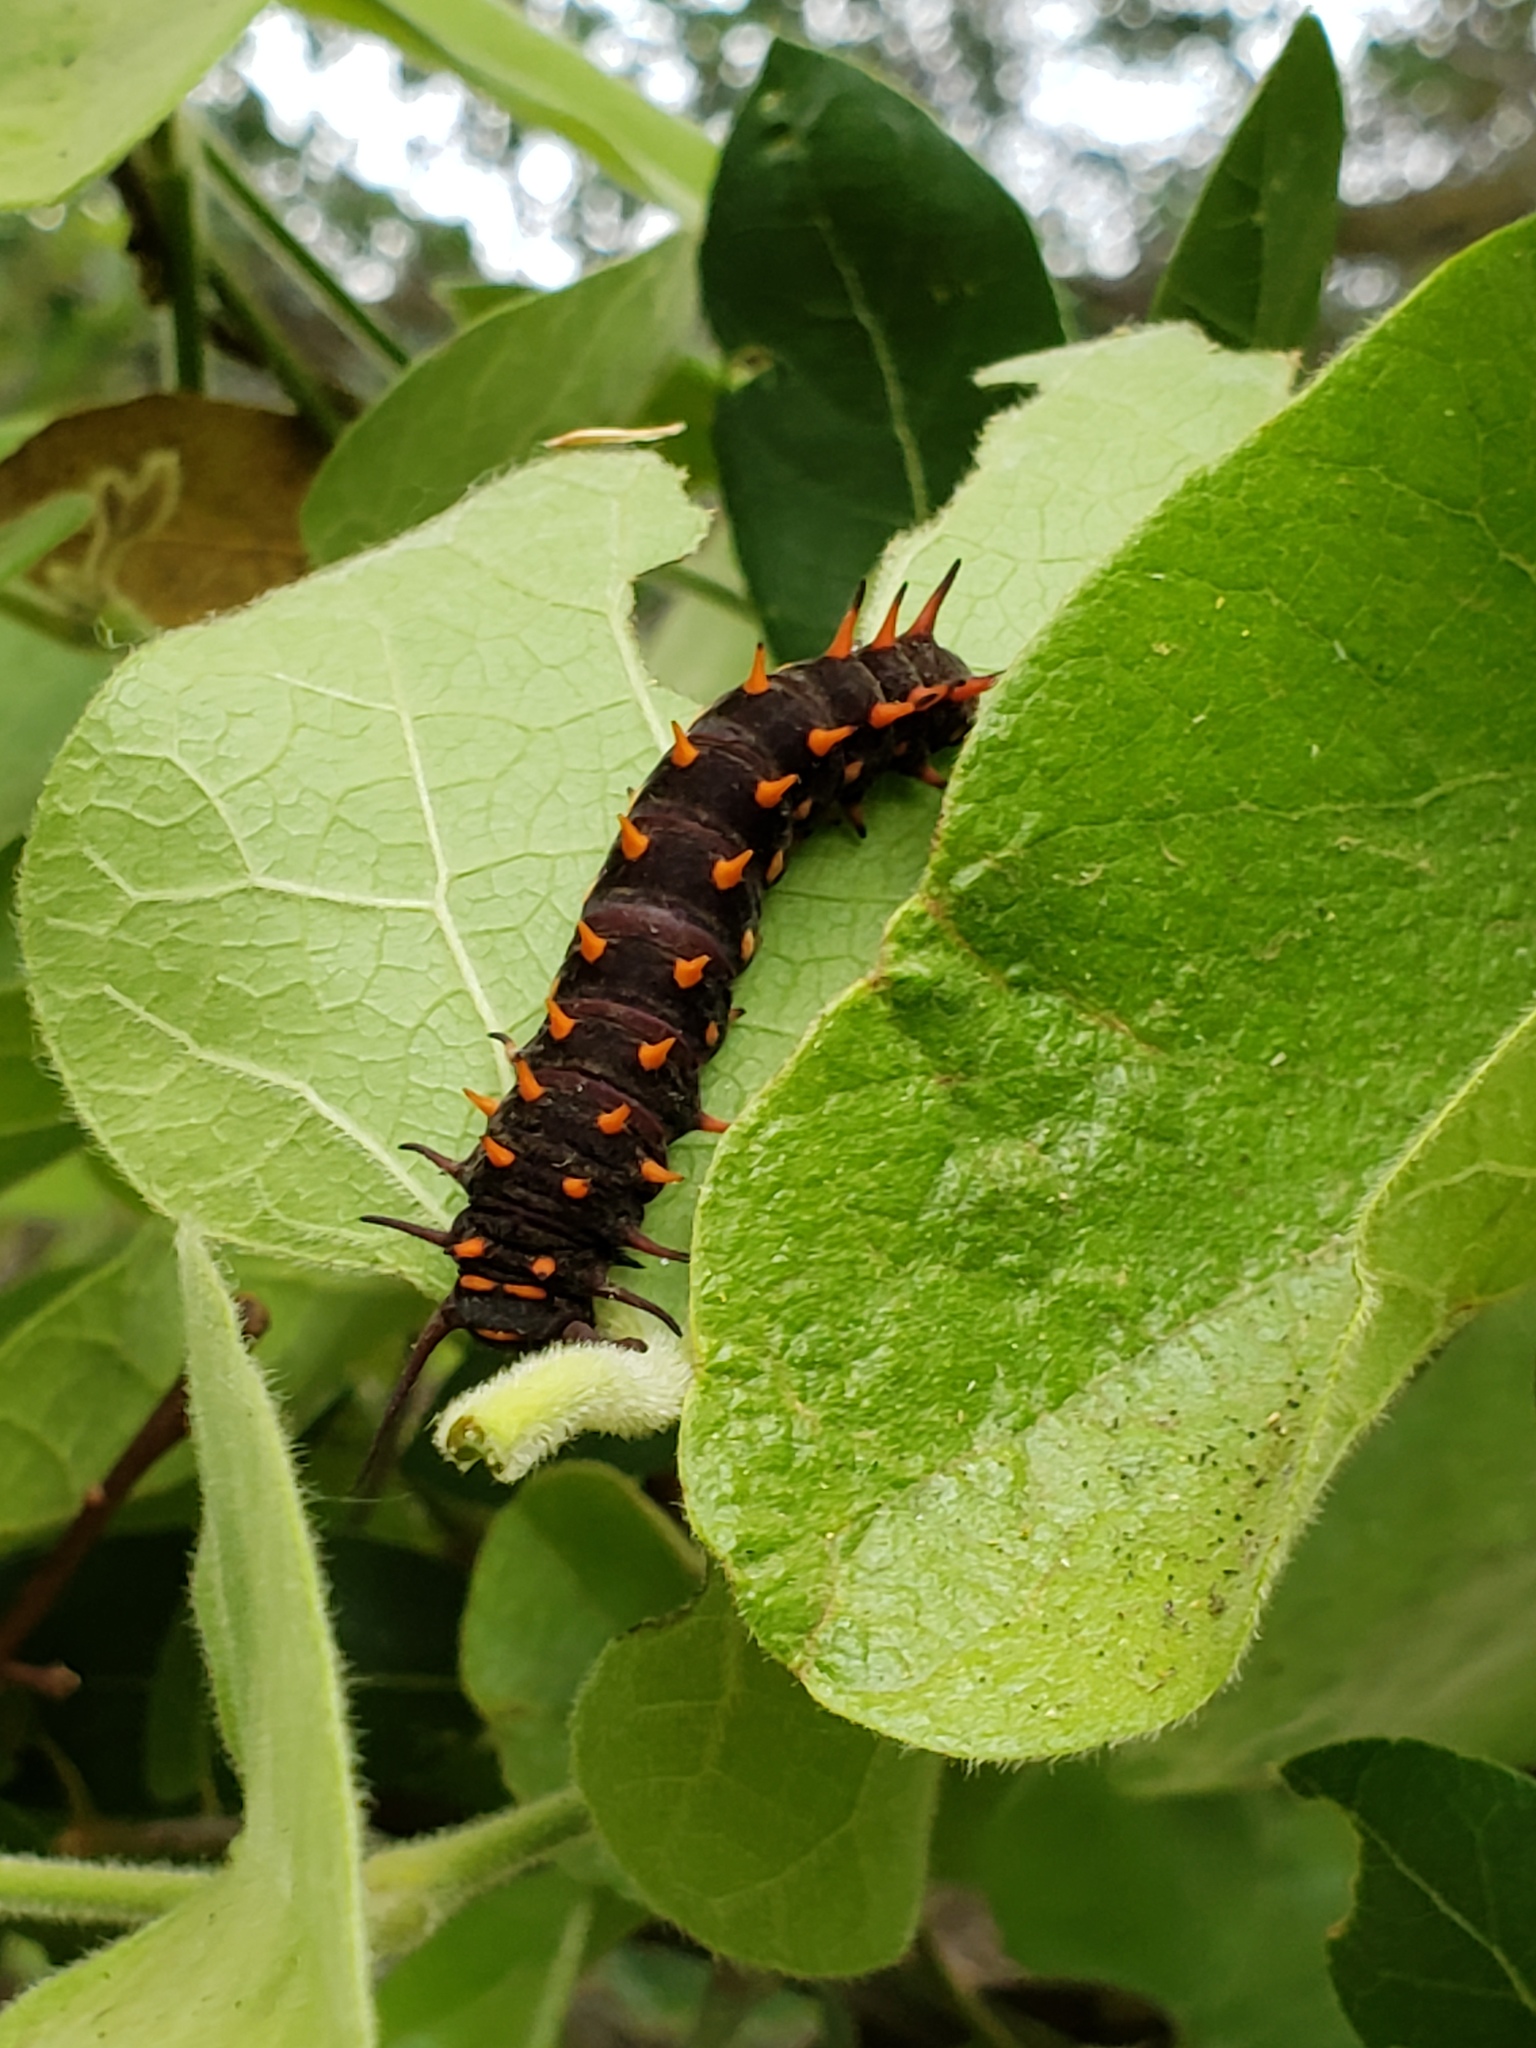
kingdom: Animalia
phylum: Arthropoda
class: Insecta
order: Lepidoptera
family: Papilionidae
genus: Battus
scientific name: Battus philenor
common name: Pipevine swallowtail
